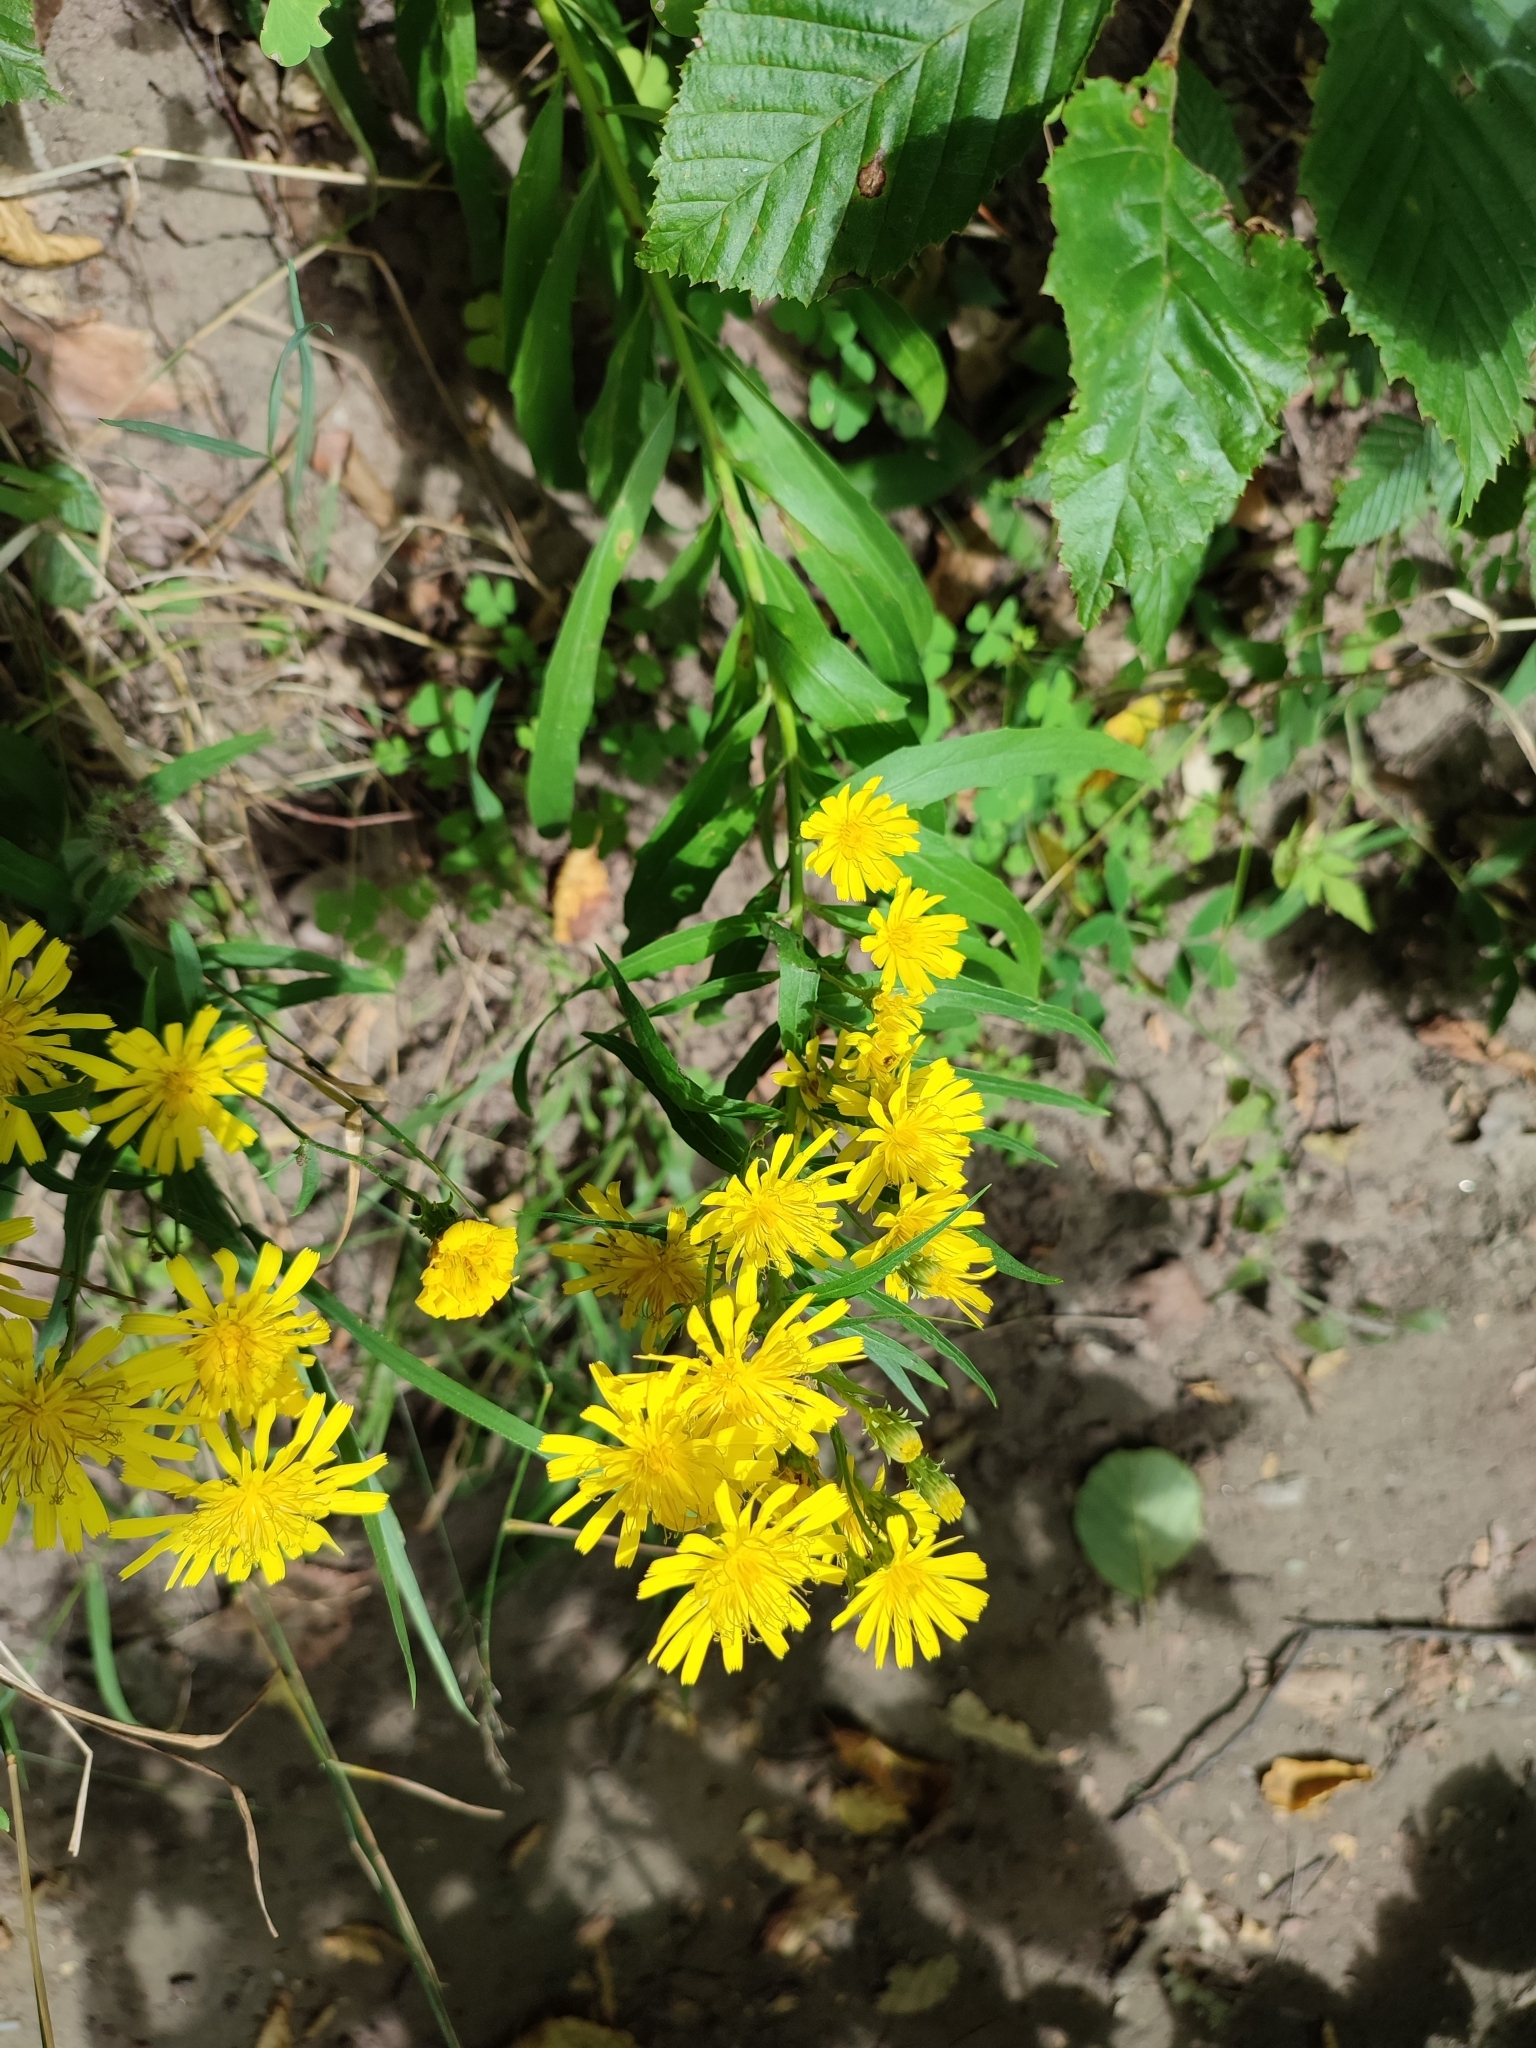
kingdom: Plantae
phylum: Tracheophyta
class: Magnoliopsida
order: Asterales
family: Asteraceae
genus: Hieracium
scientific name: Hieracium umbellatum
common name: Northern hawkweed
